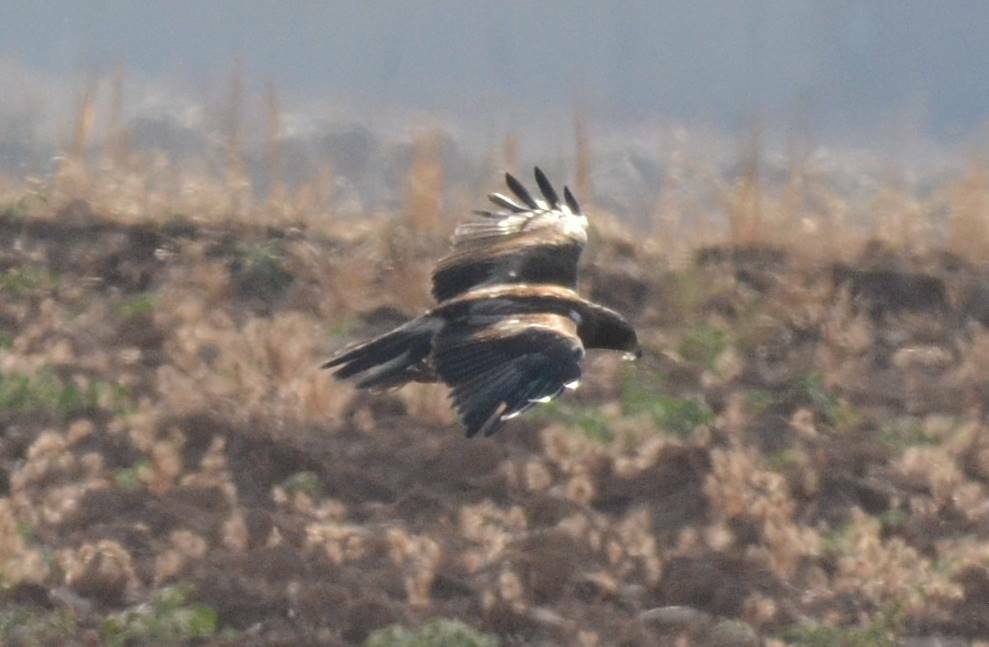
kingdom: Animalia
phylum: Chordata
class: Aves
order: Accipitriformes
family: Accipitridae
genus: Hieraaetus
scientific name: Hieraaetus pennatus
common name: Booted eagle
